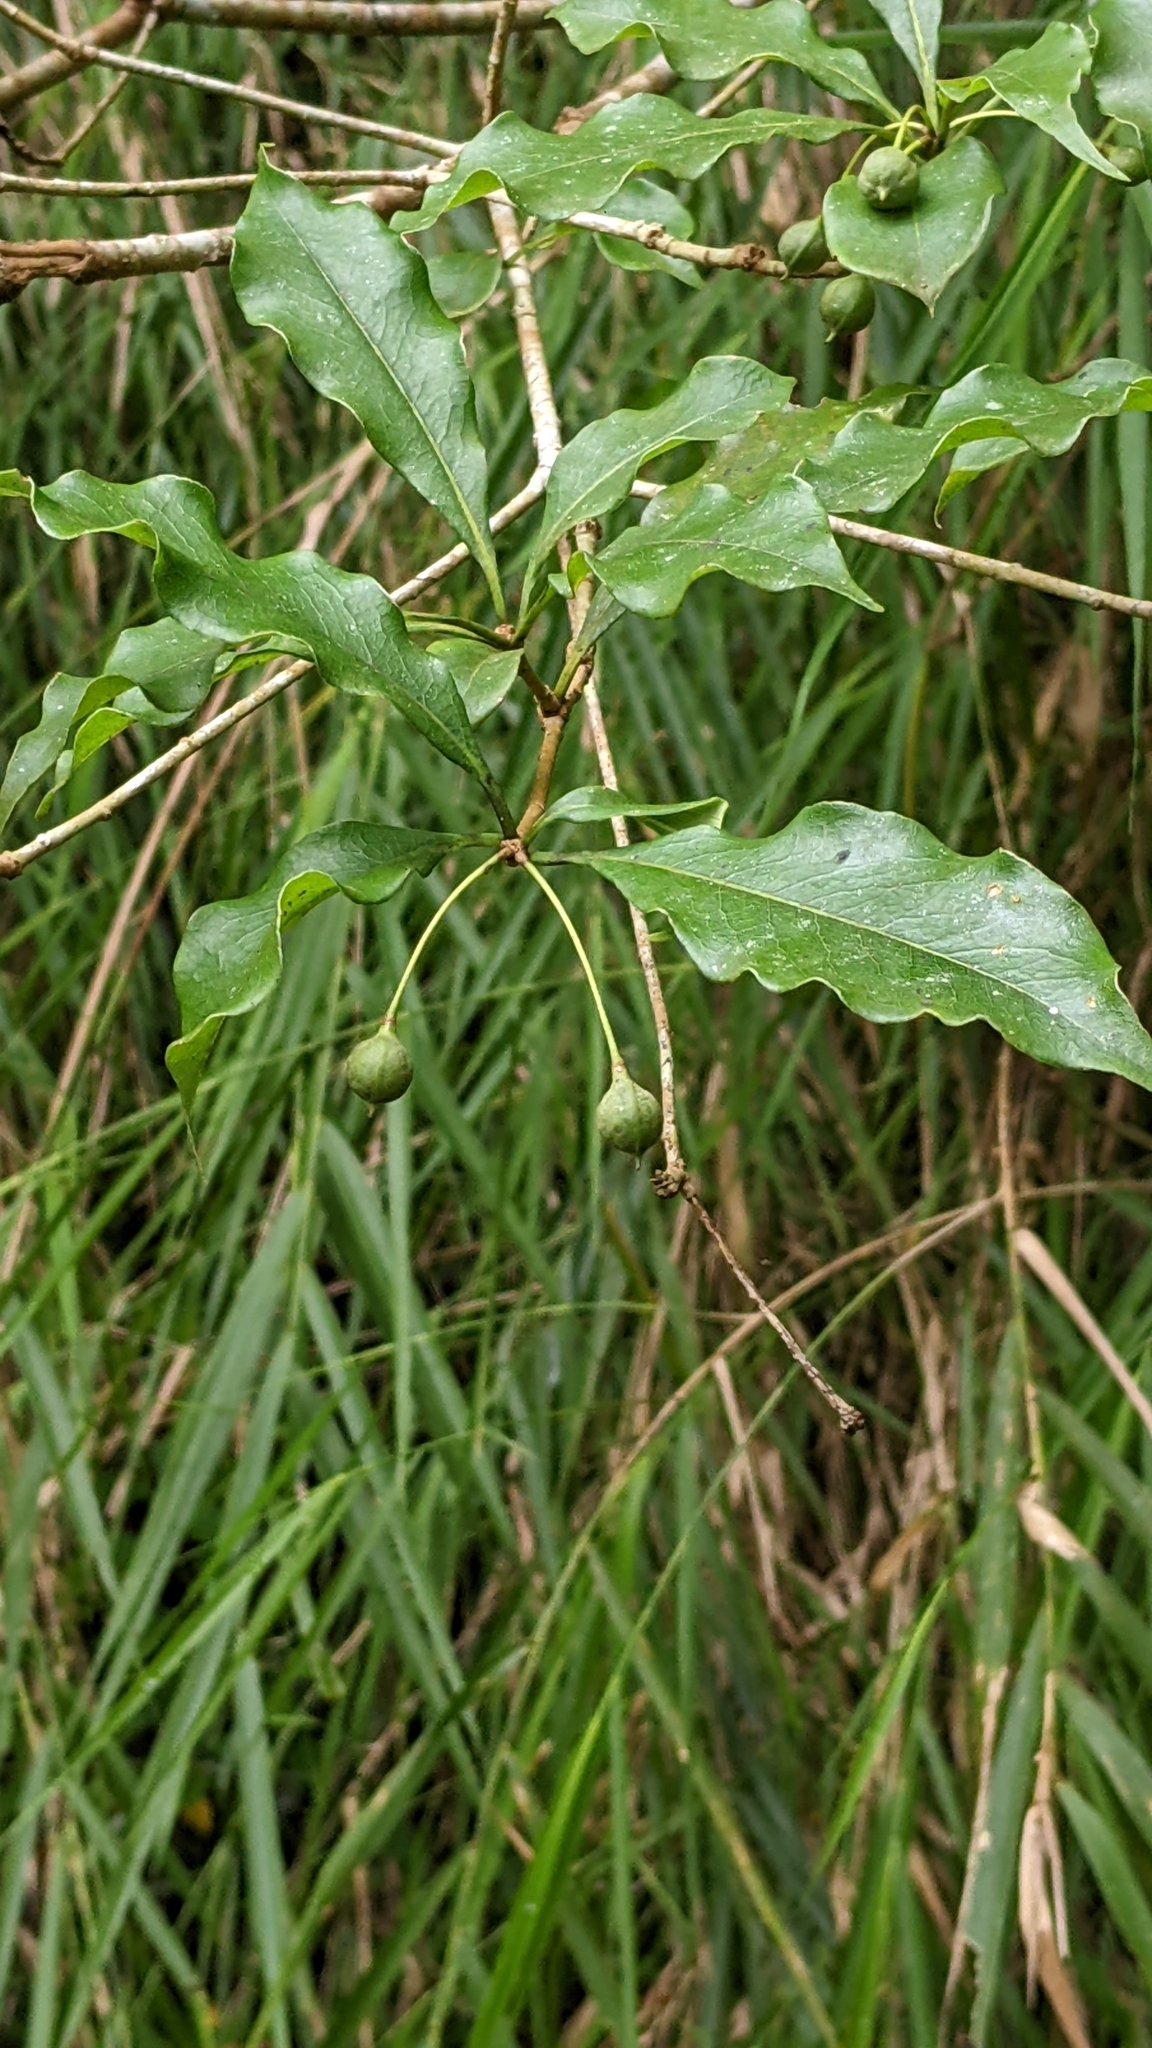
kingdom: Plantae
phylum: Tracheophyta
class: Magnoliopsida
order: Apiales
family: Pittosporaceae
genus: Pittosporum
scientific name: Pittosporum illicioides
